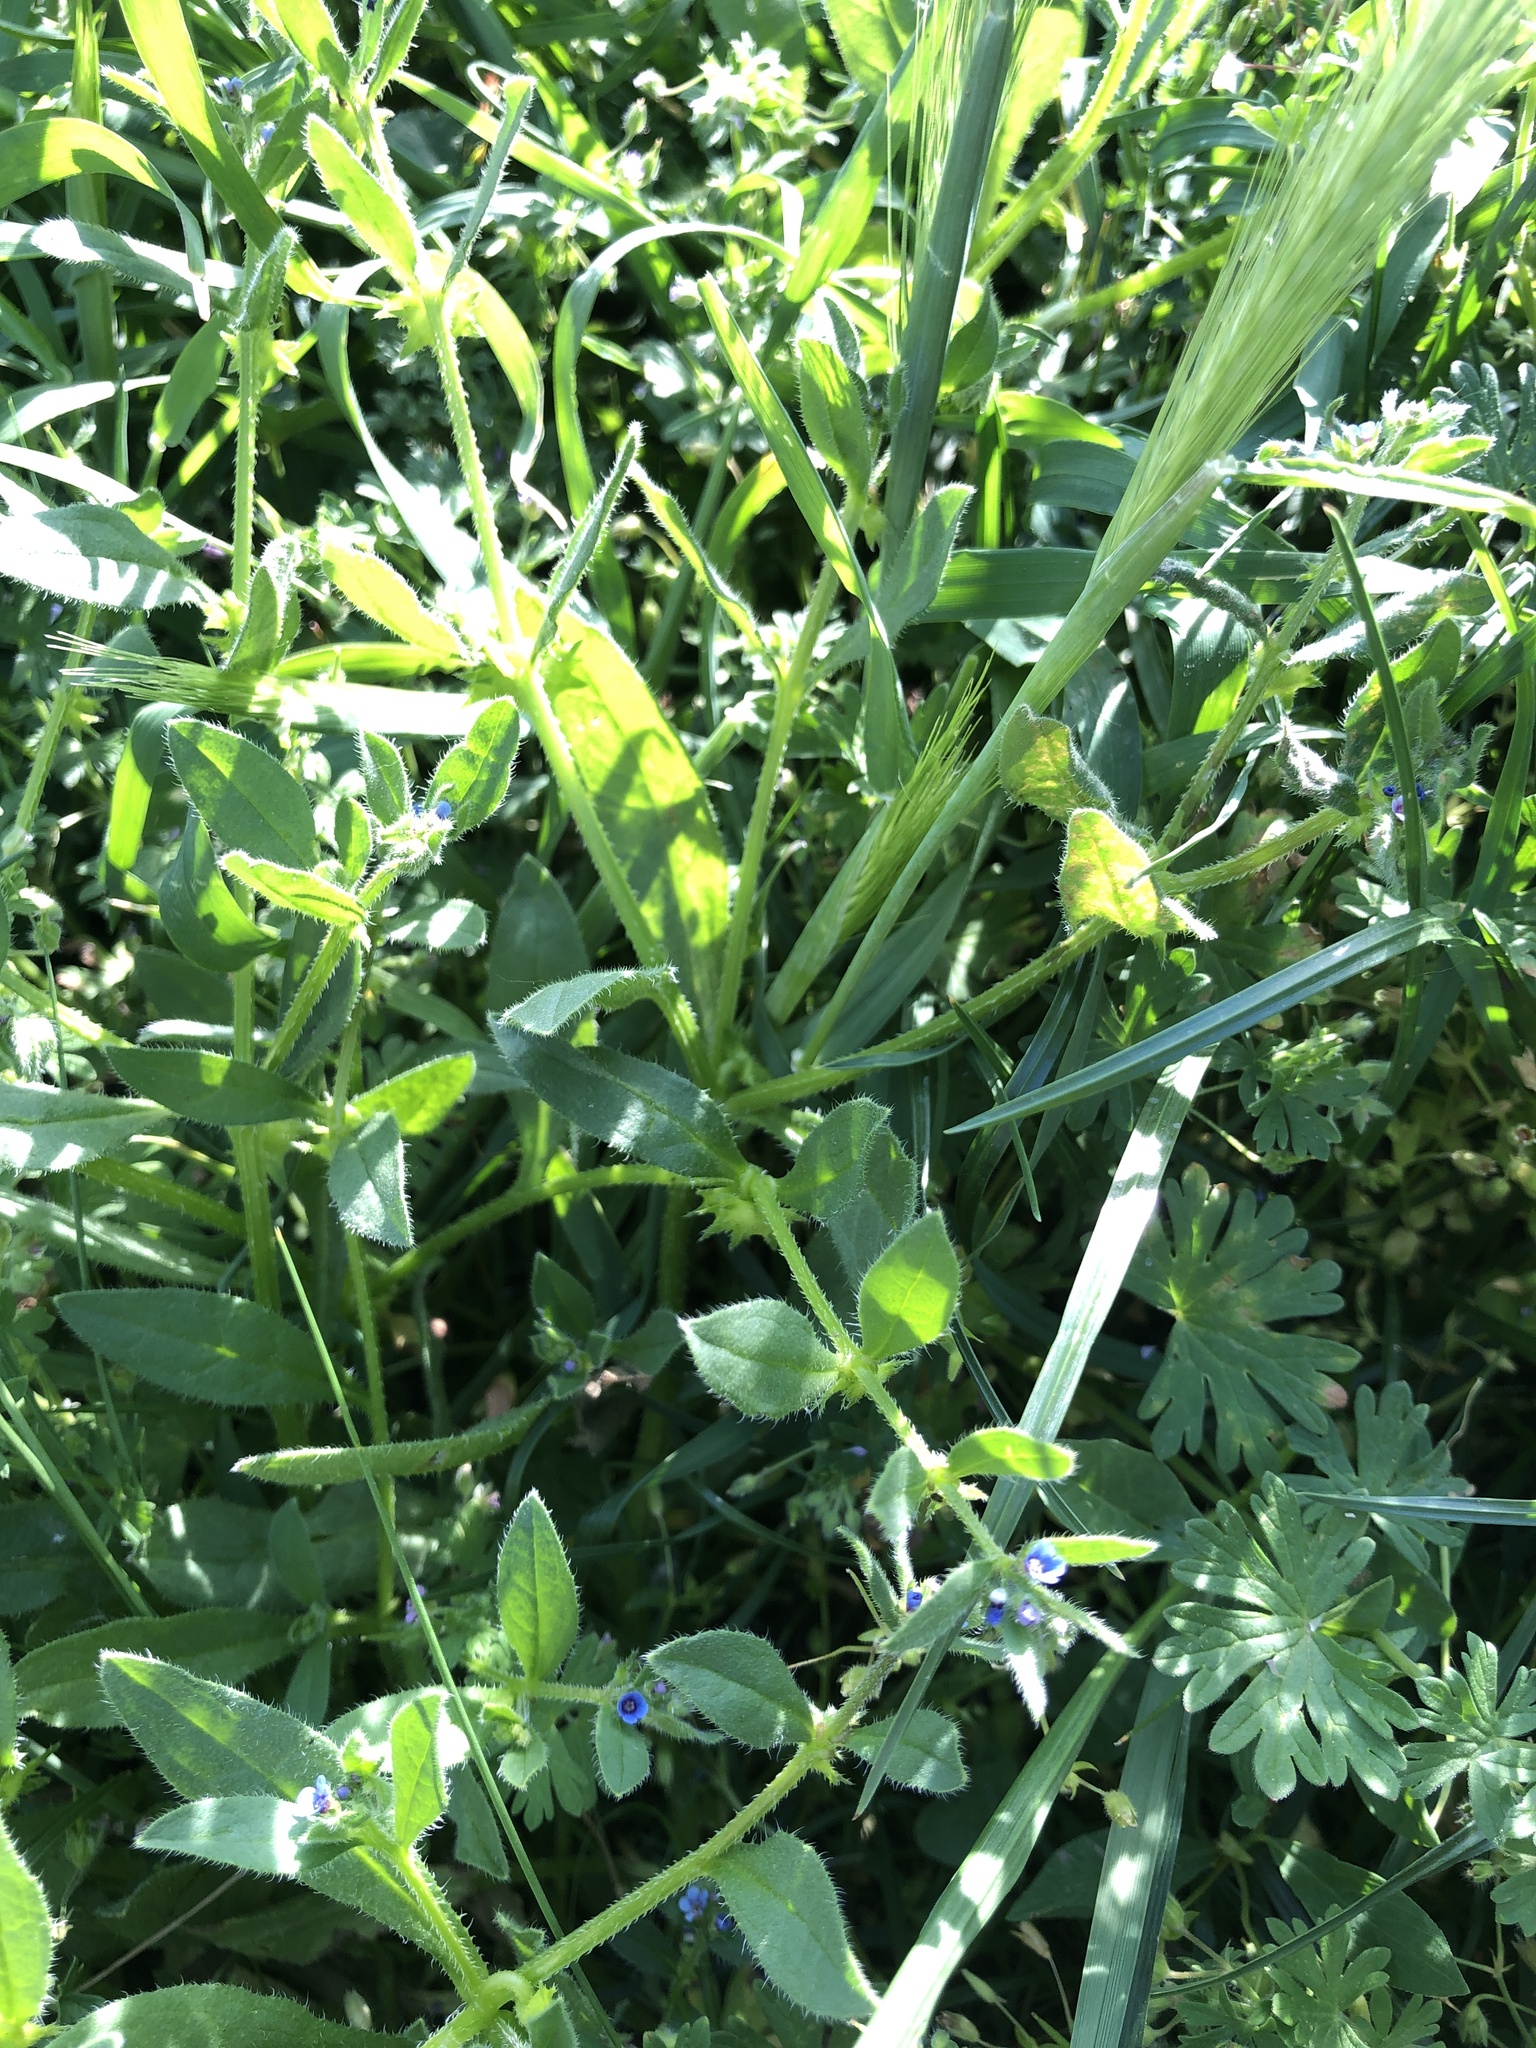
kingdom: Plantae
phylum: Tracheophyta
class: Magnoliopsida
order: Boraginales
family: Boraginaceae
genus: Asperugo
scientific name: Asperugo procumbens
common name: Madwort
